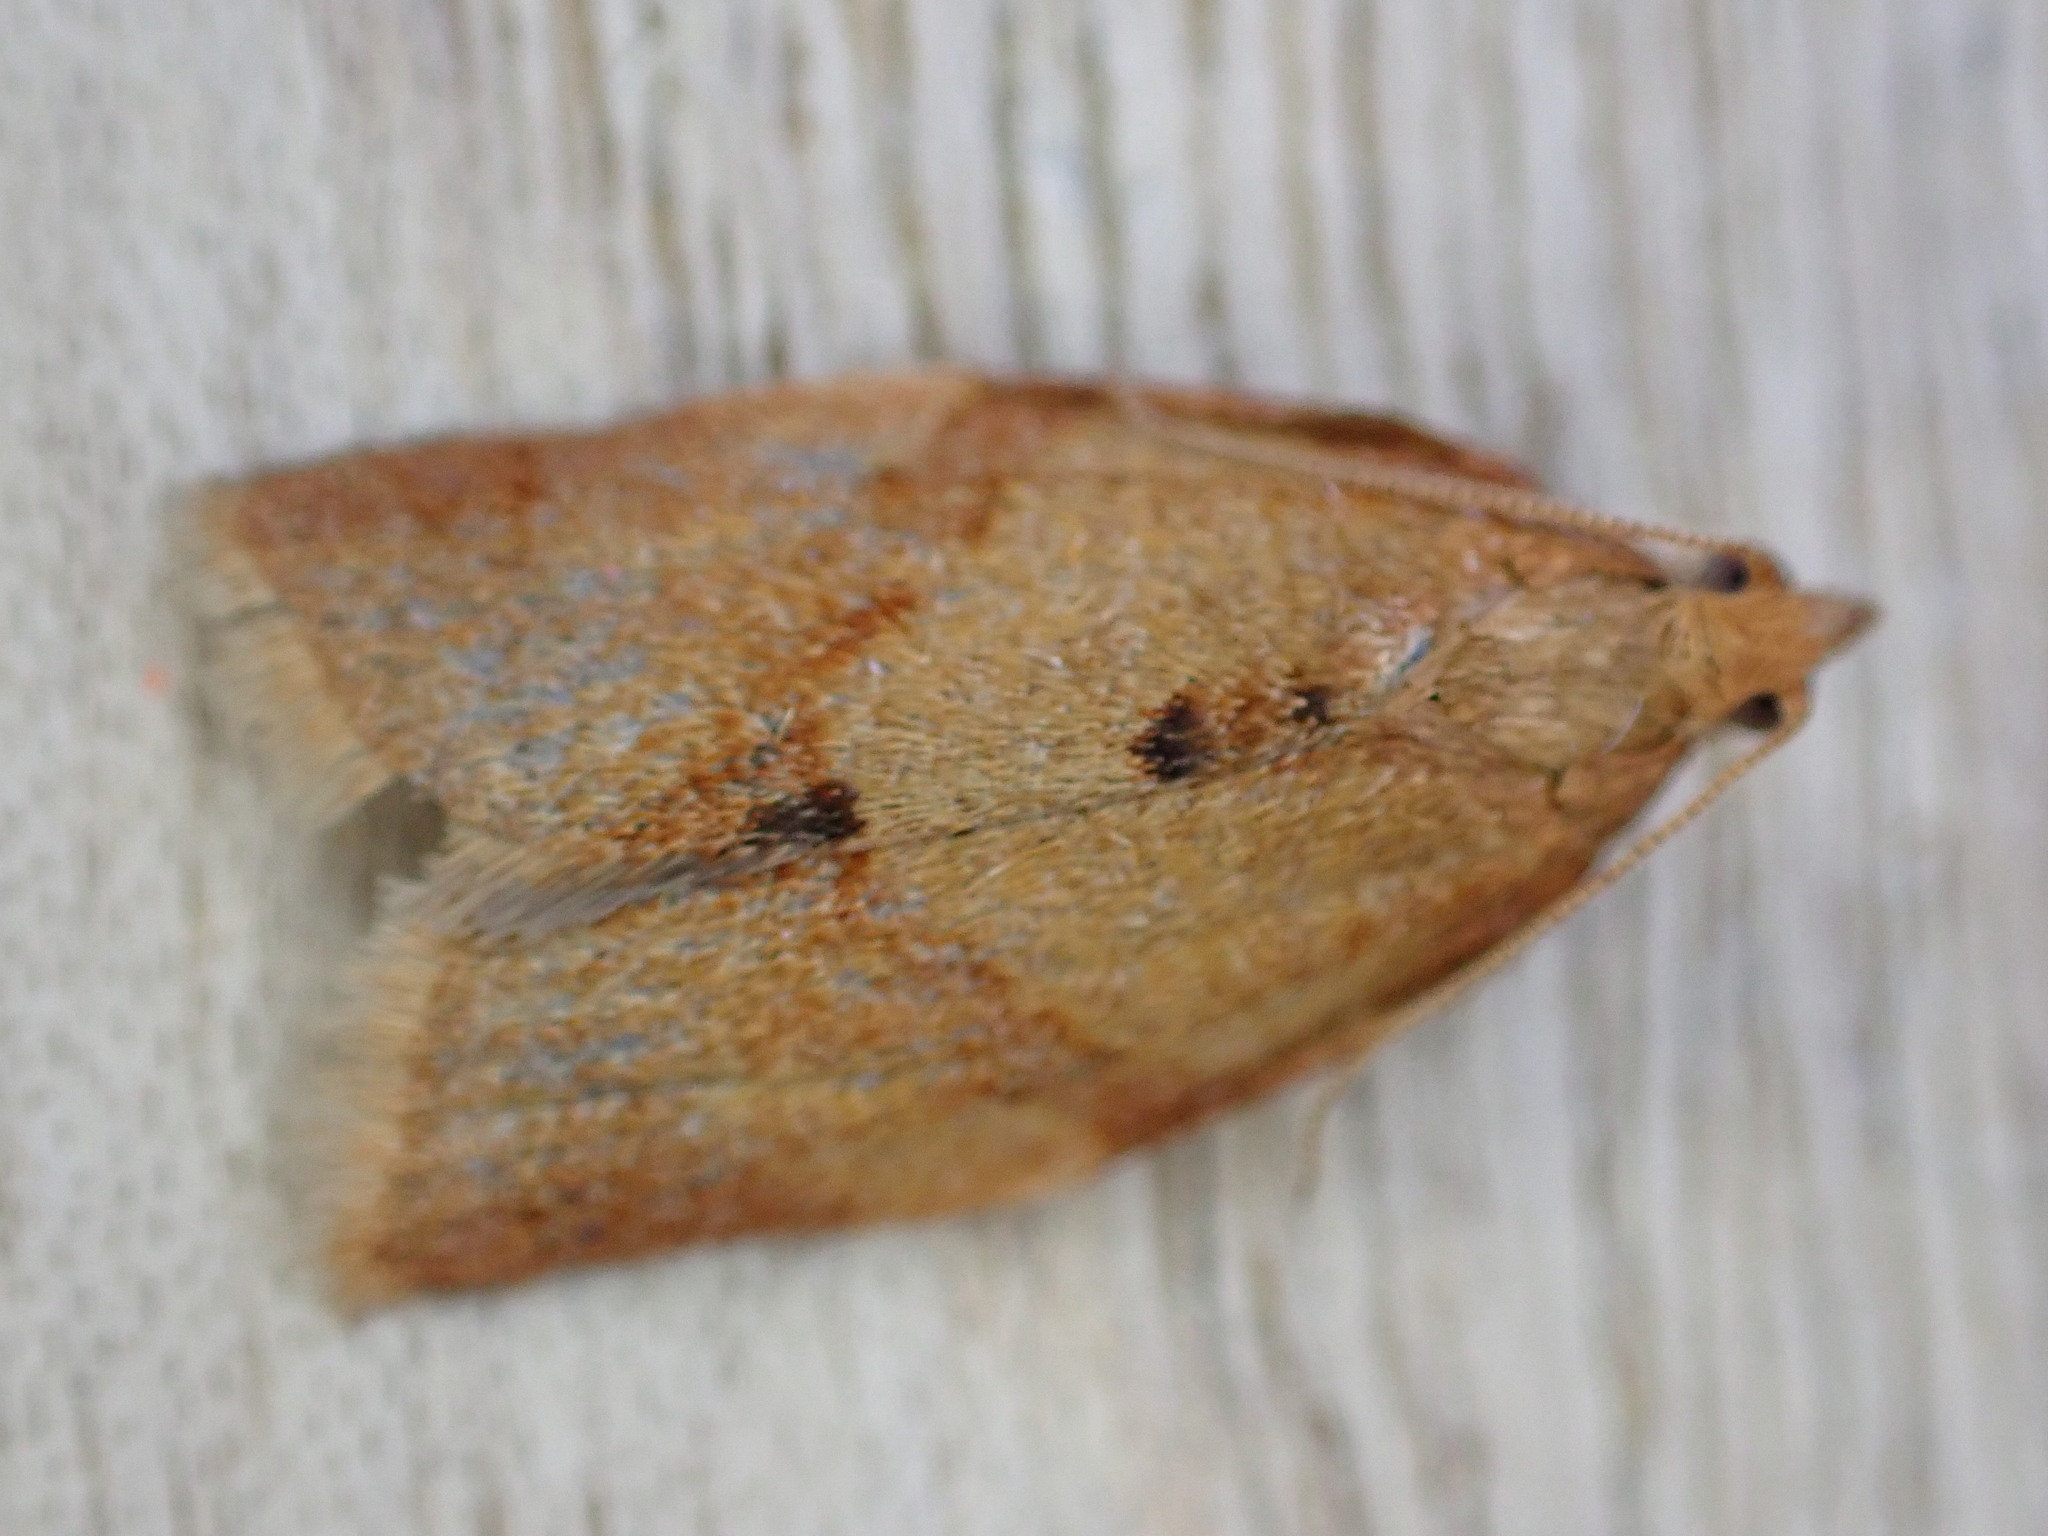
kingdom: Animalia
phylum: Arthropoda
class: Insecta
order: Lepidoptera
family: Tortricidae
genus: Clepsis
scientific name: Clepsis consimilana
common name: Privet tortrix
